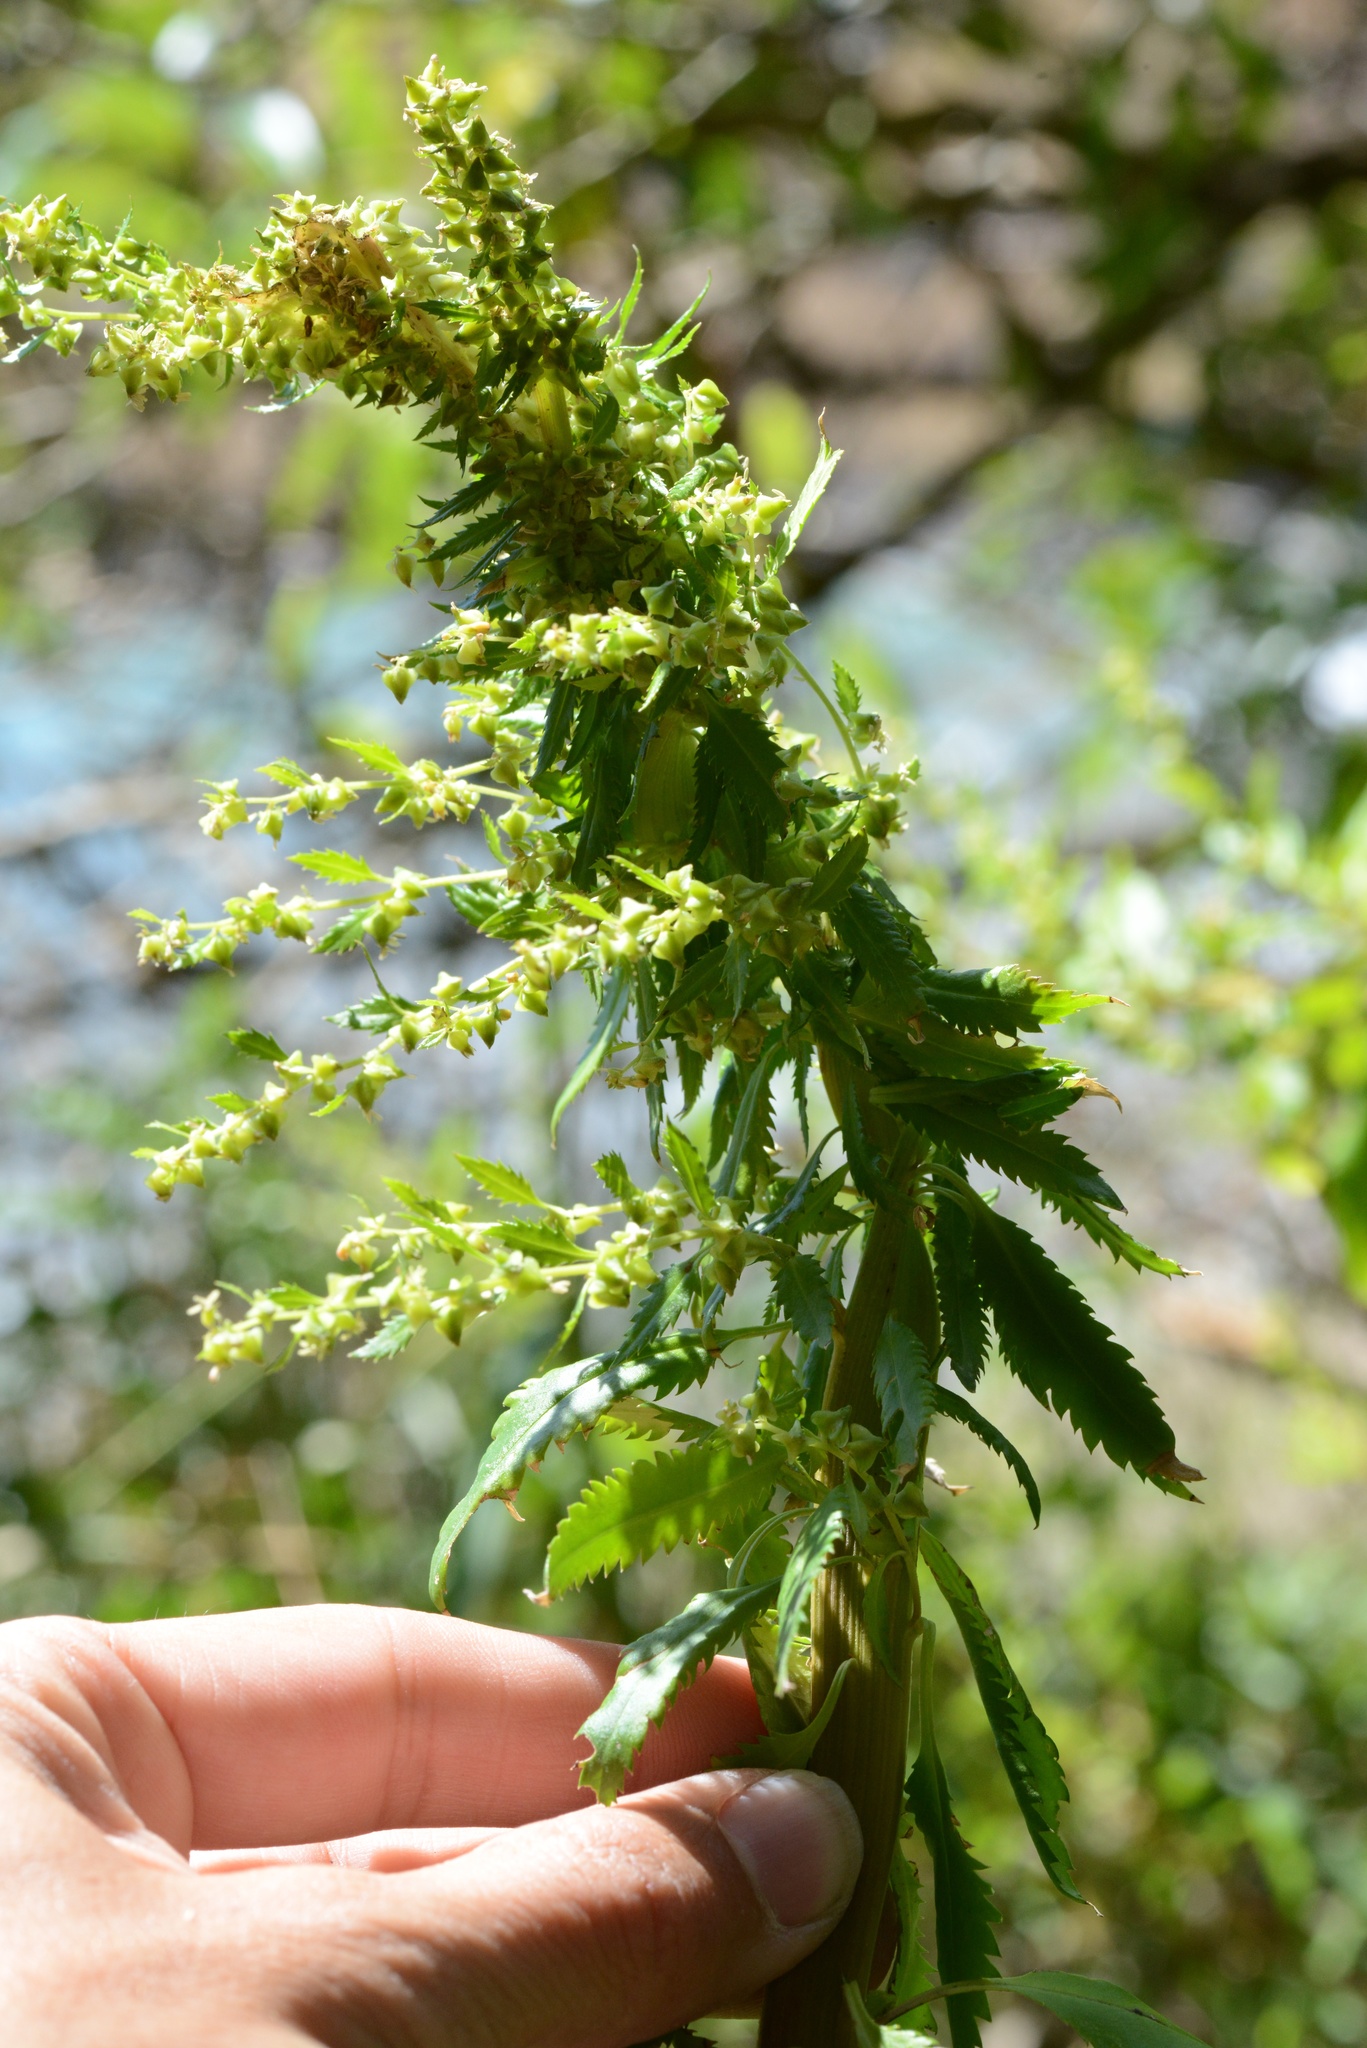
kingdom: Plantae
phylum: Tracheophyta
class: Magnoliopsida
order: Saxifragales
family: Haloragaceae
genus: Haloragis
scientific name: Haloragis erecta
